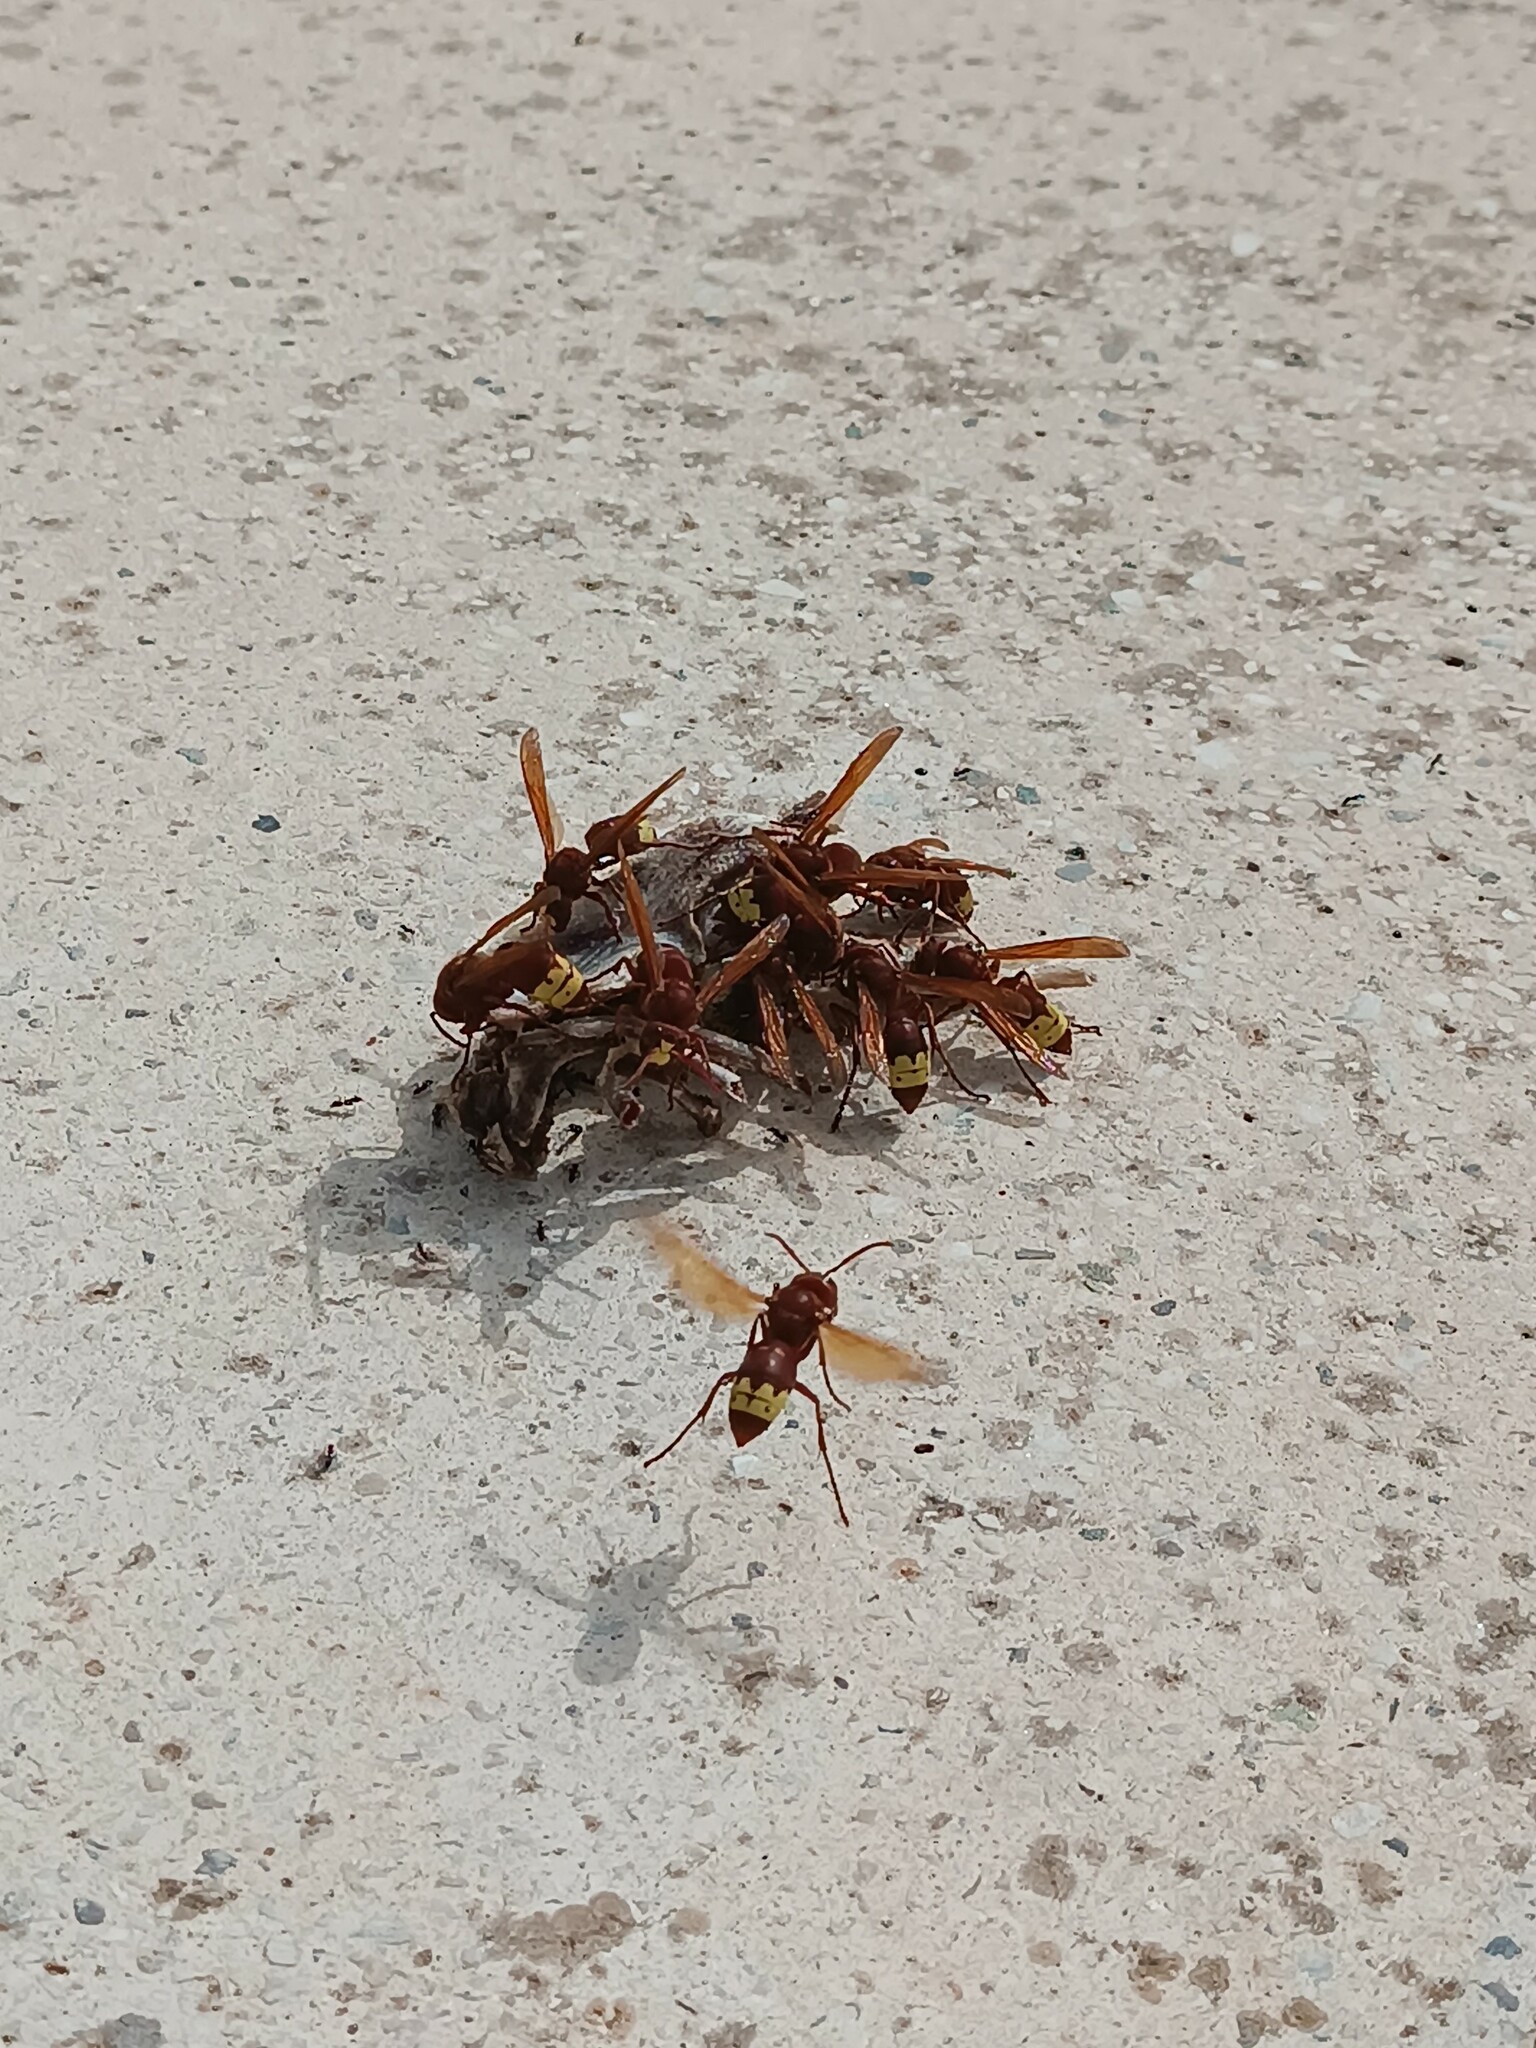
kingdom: Animalia
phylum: Arthropoda
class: Insecta
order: Hymenoptera
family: Vespidae
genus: Vespa
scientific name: Vespa orientalis
